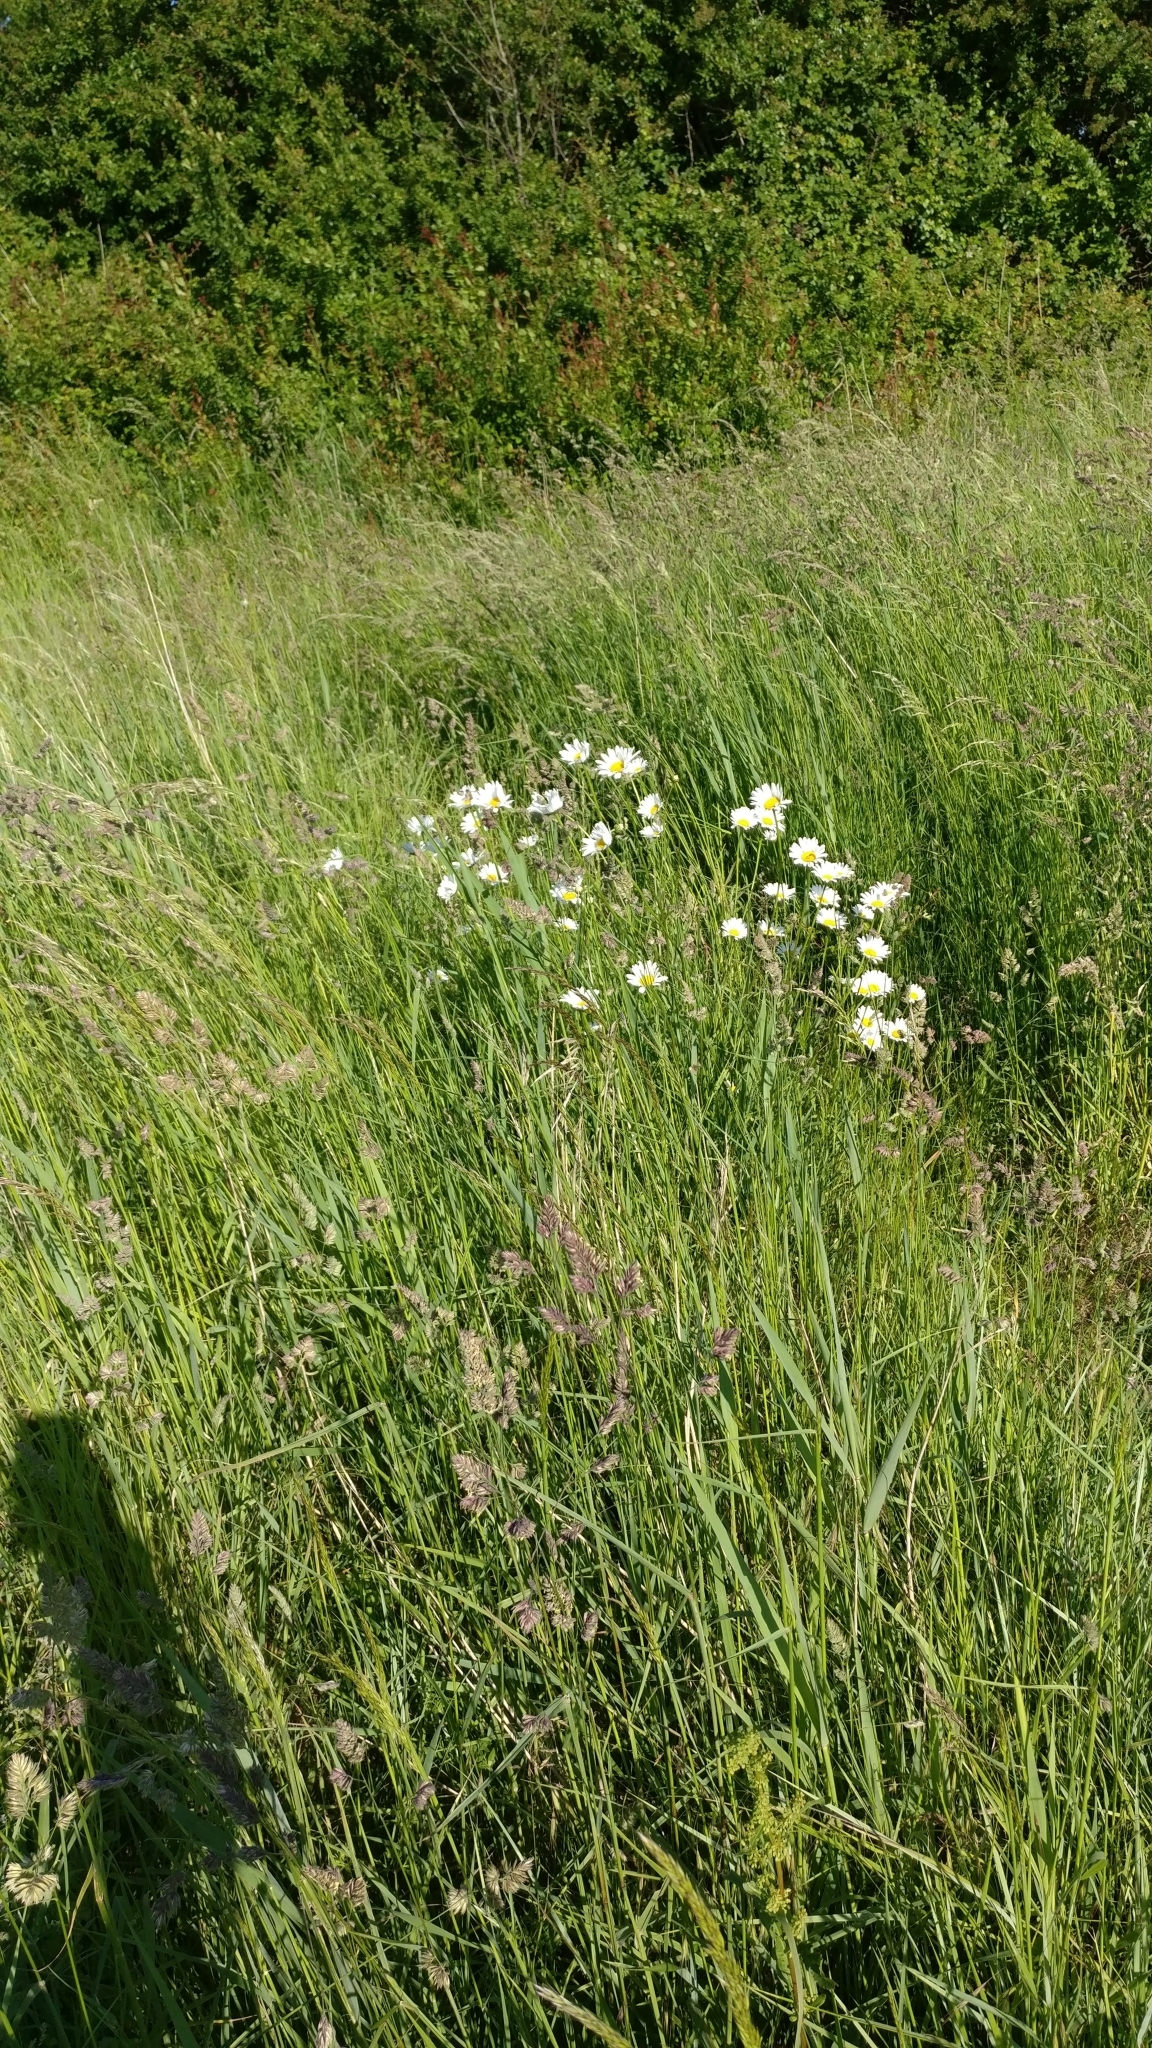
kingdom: Plantae
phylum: Tracheophyta
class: Magnoliopsida
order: Asterales
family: Asteraceae
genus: Leucanthemum
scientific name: Leucanthemum vulgare
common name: Oxeye daisy
